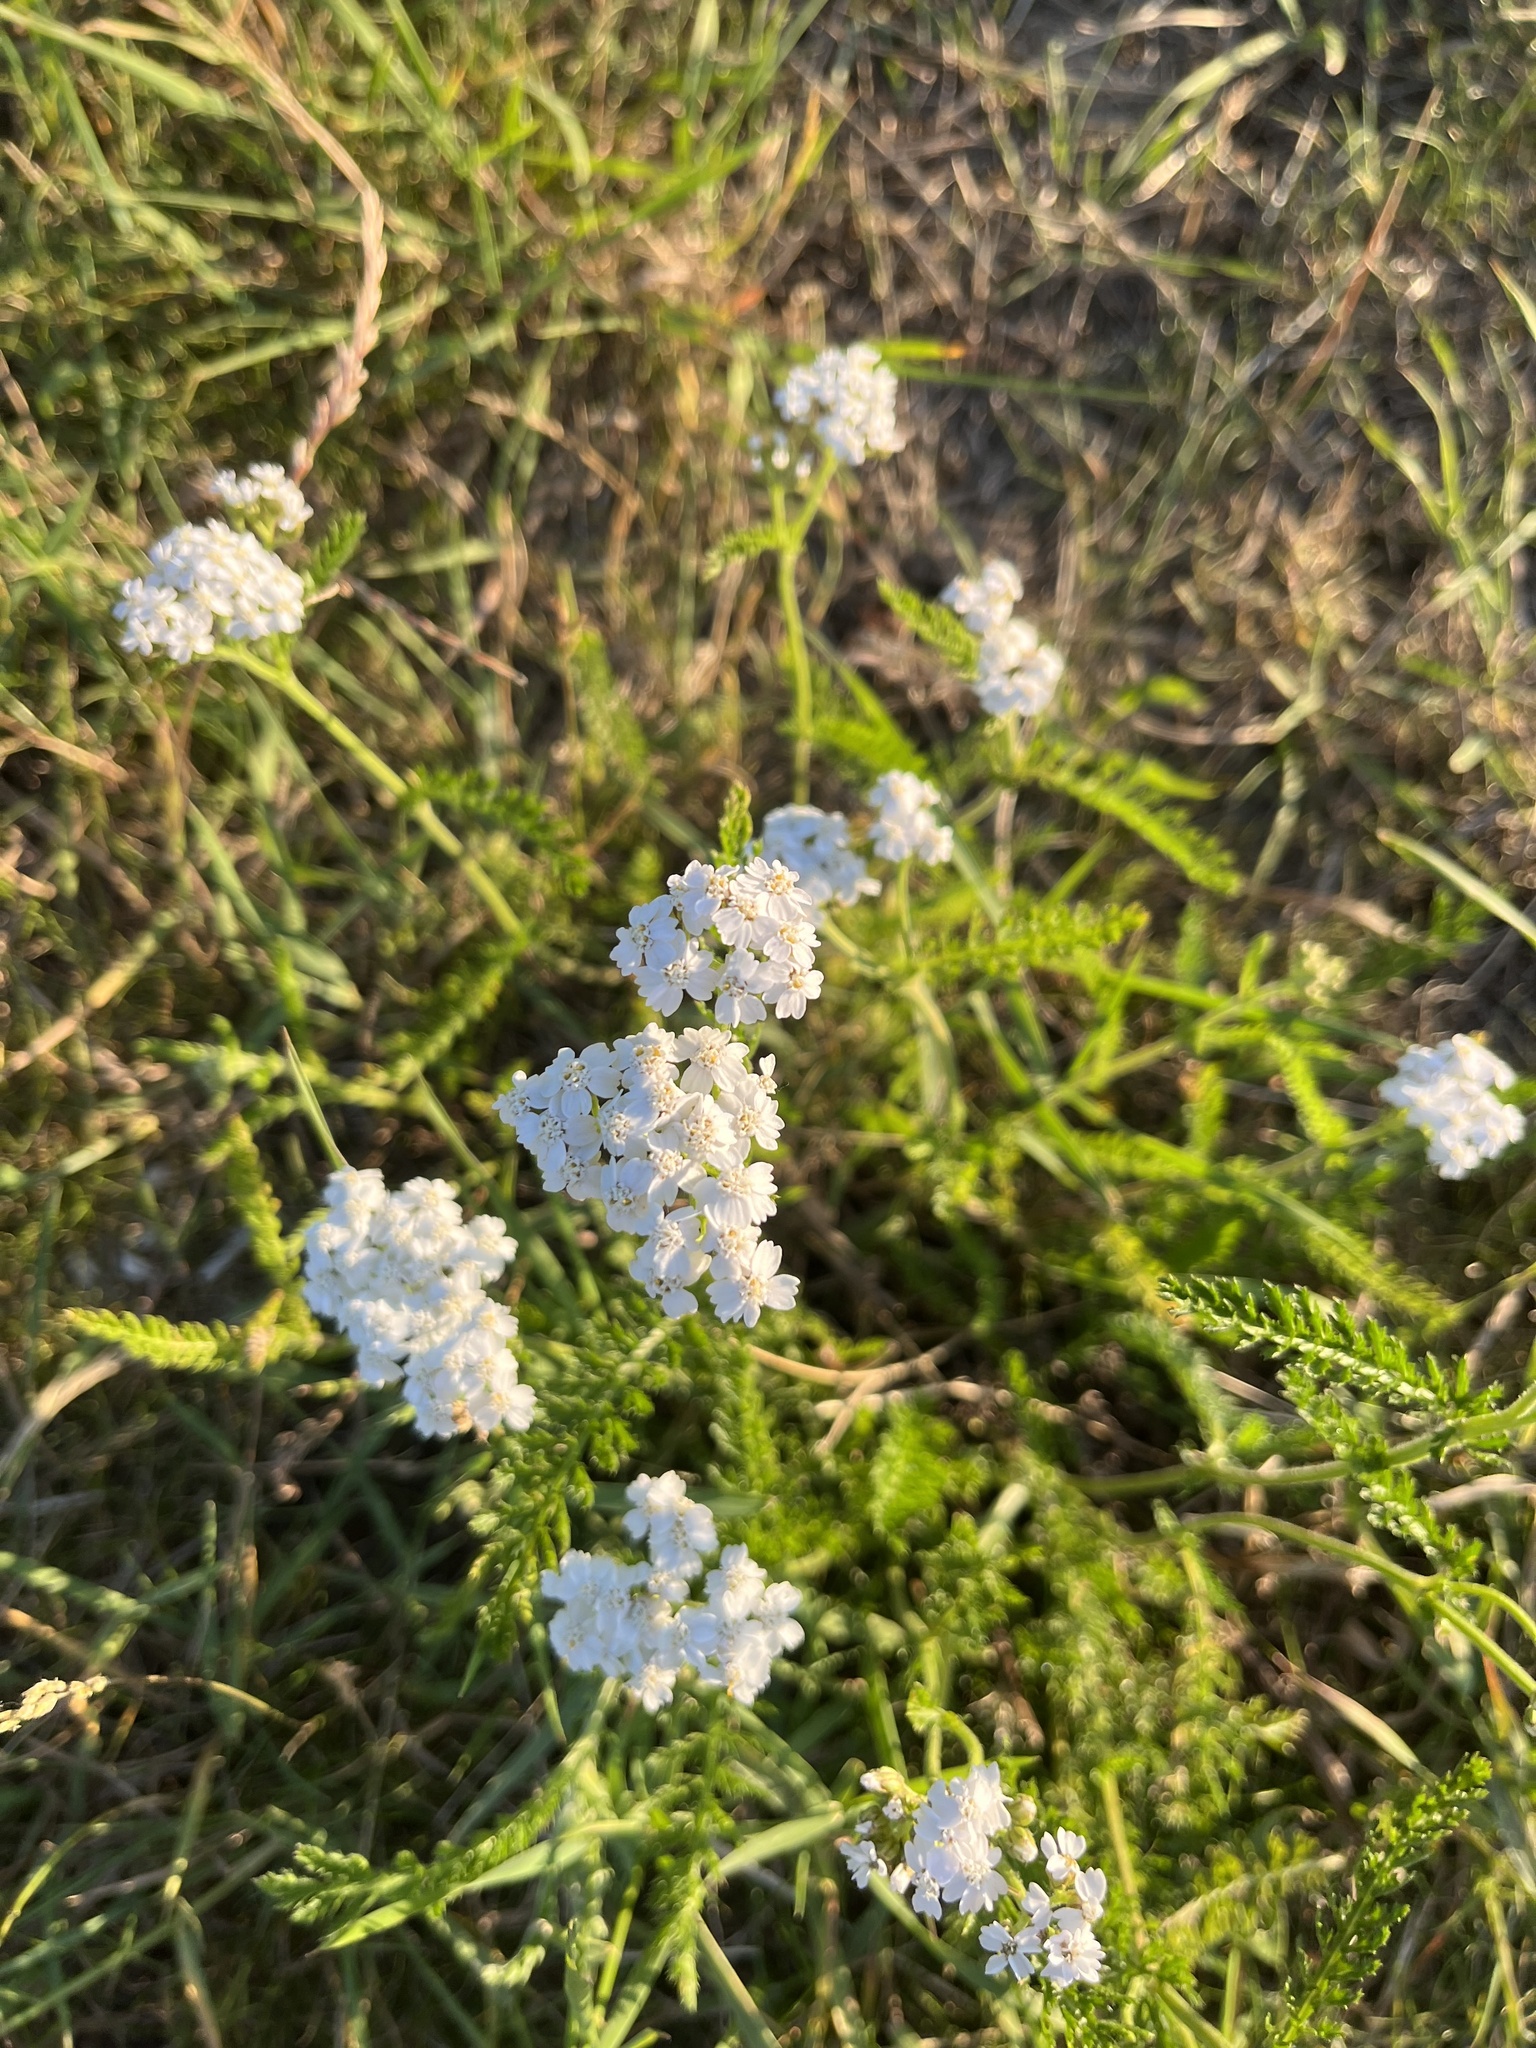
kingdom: Plantae
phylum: Tracheophyta
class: Magnoliopsida
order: Asterales
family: Asteraceae
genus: Achillea
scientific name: Achillea millefolium
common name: Yarrow
